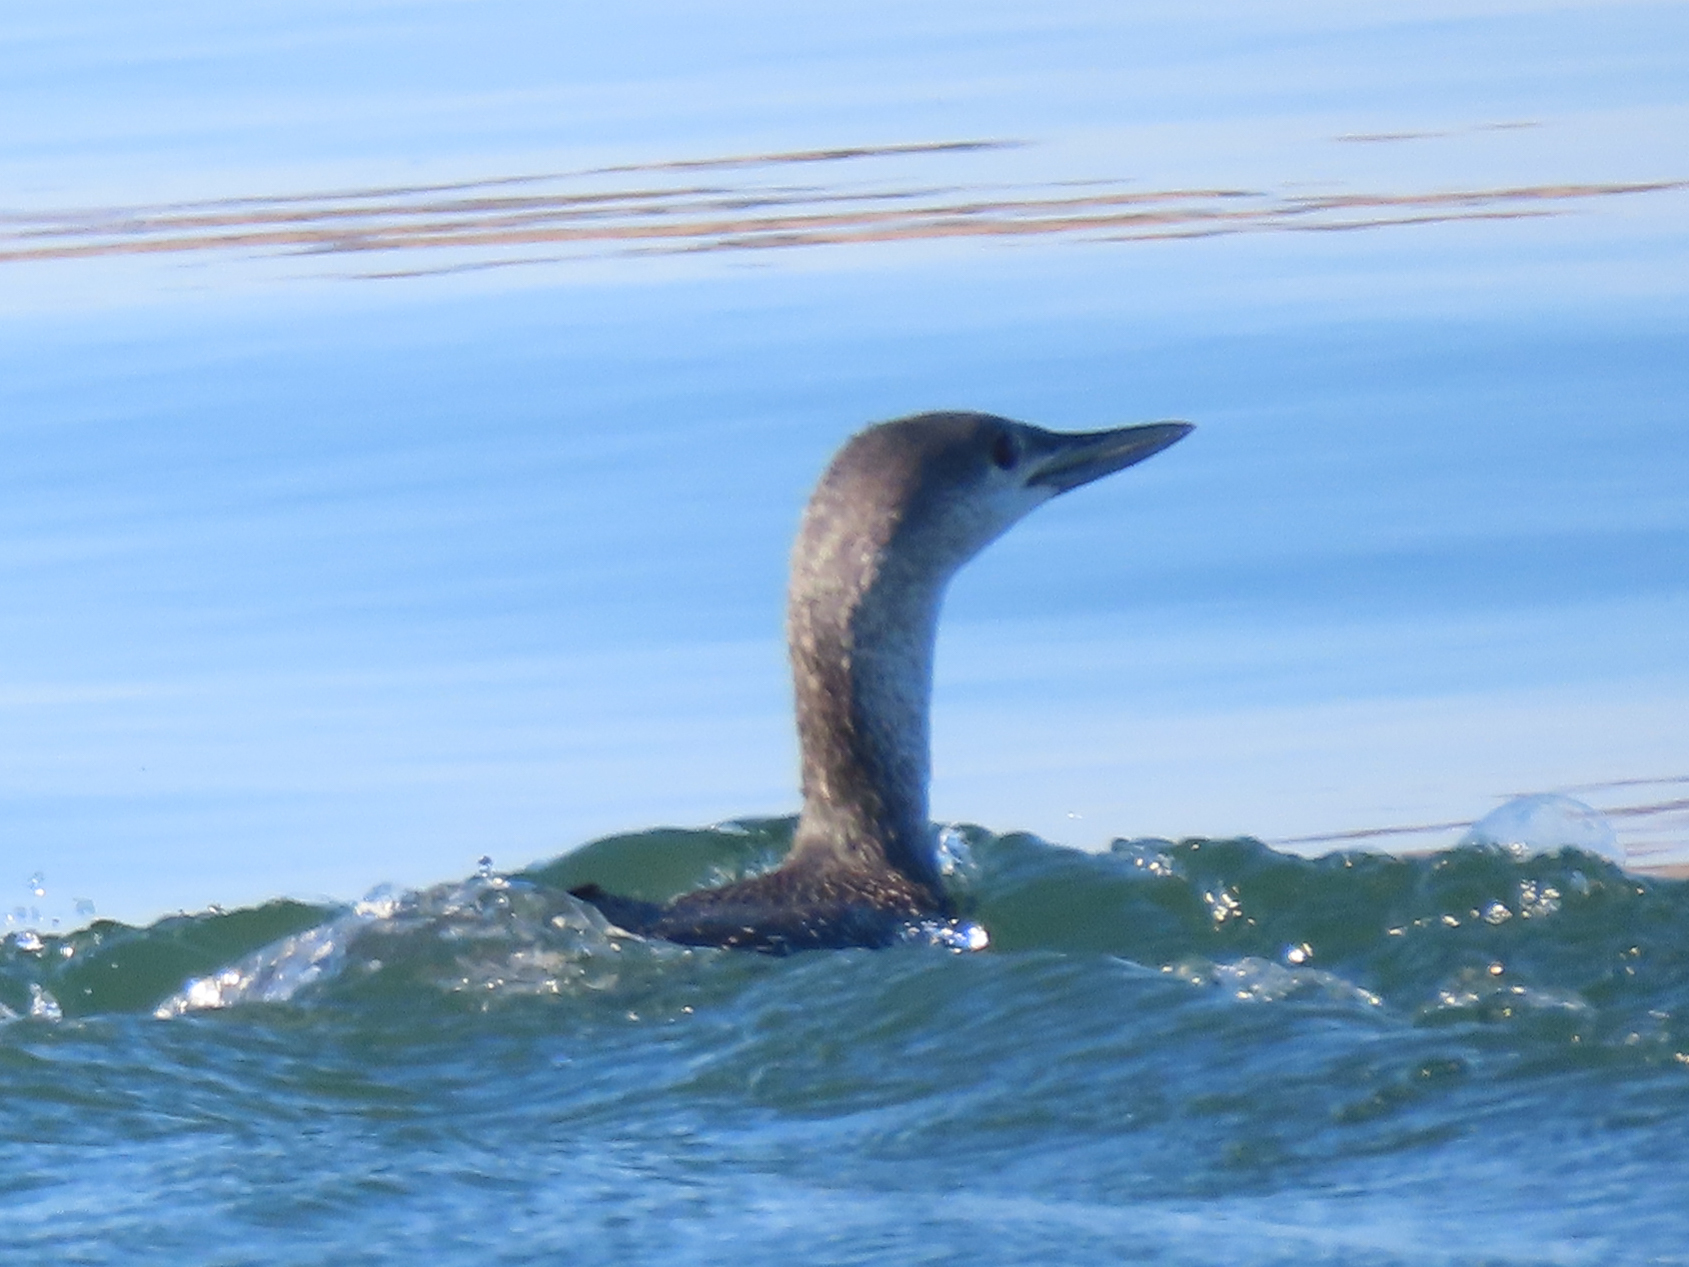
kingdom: Animalia
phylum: Chordata
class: Aves
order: Gaviiformes
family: Gaviidae
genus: Gavia
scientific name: Gavia stellata
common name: Red-throated loon
